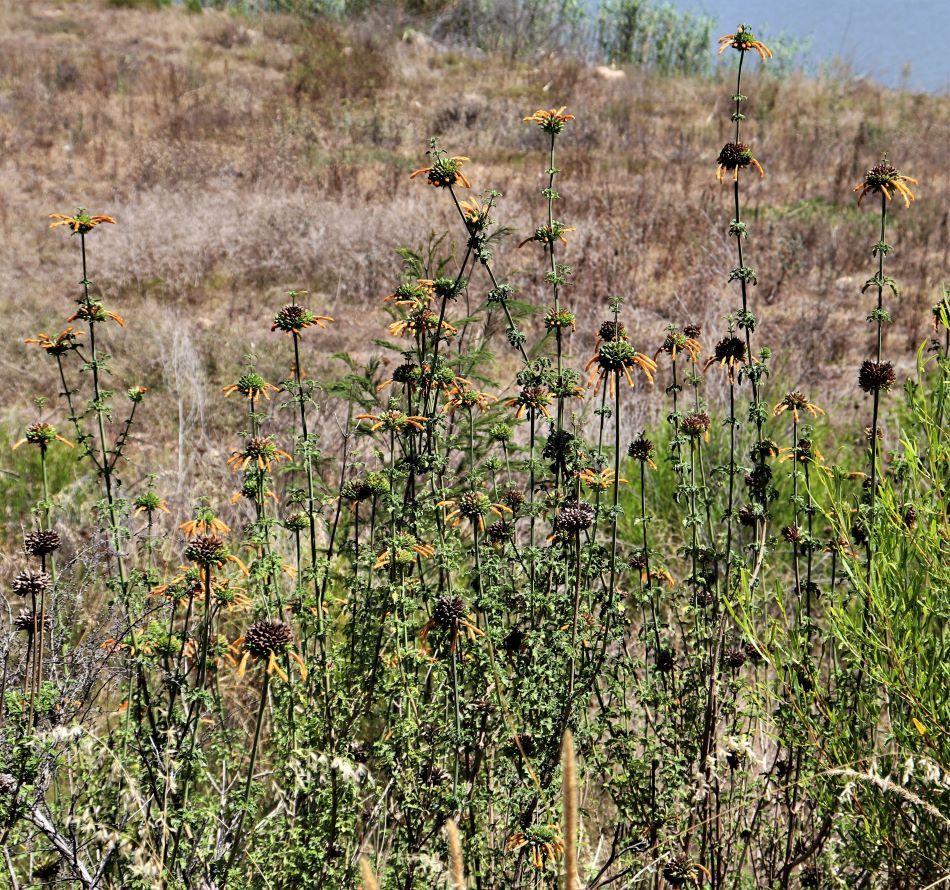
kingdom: Plantae
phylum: Tracheophyta
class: Magnoliopsida
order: Lamiales
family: Lamiaceae
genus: Leonotis
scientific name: Leonotis ocymifolia
